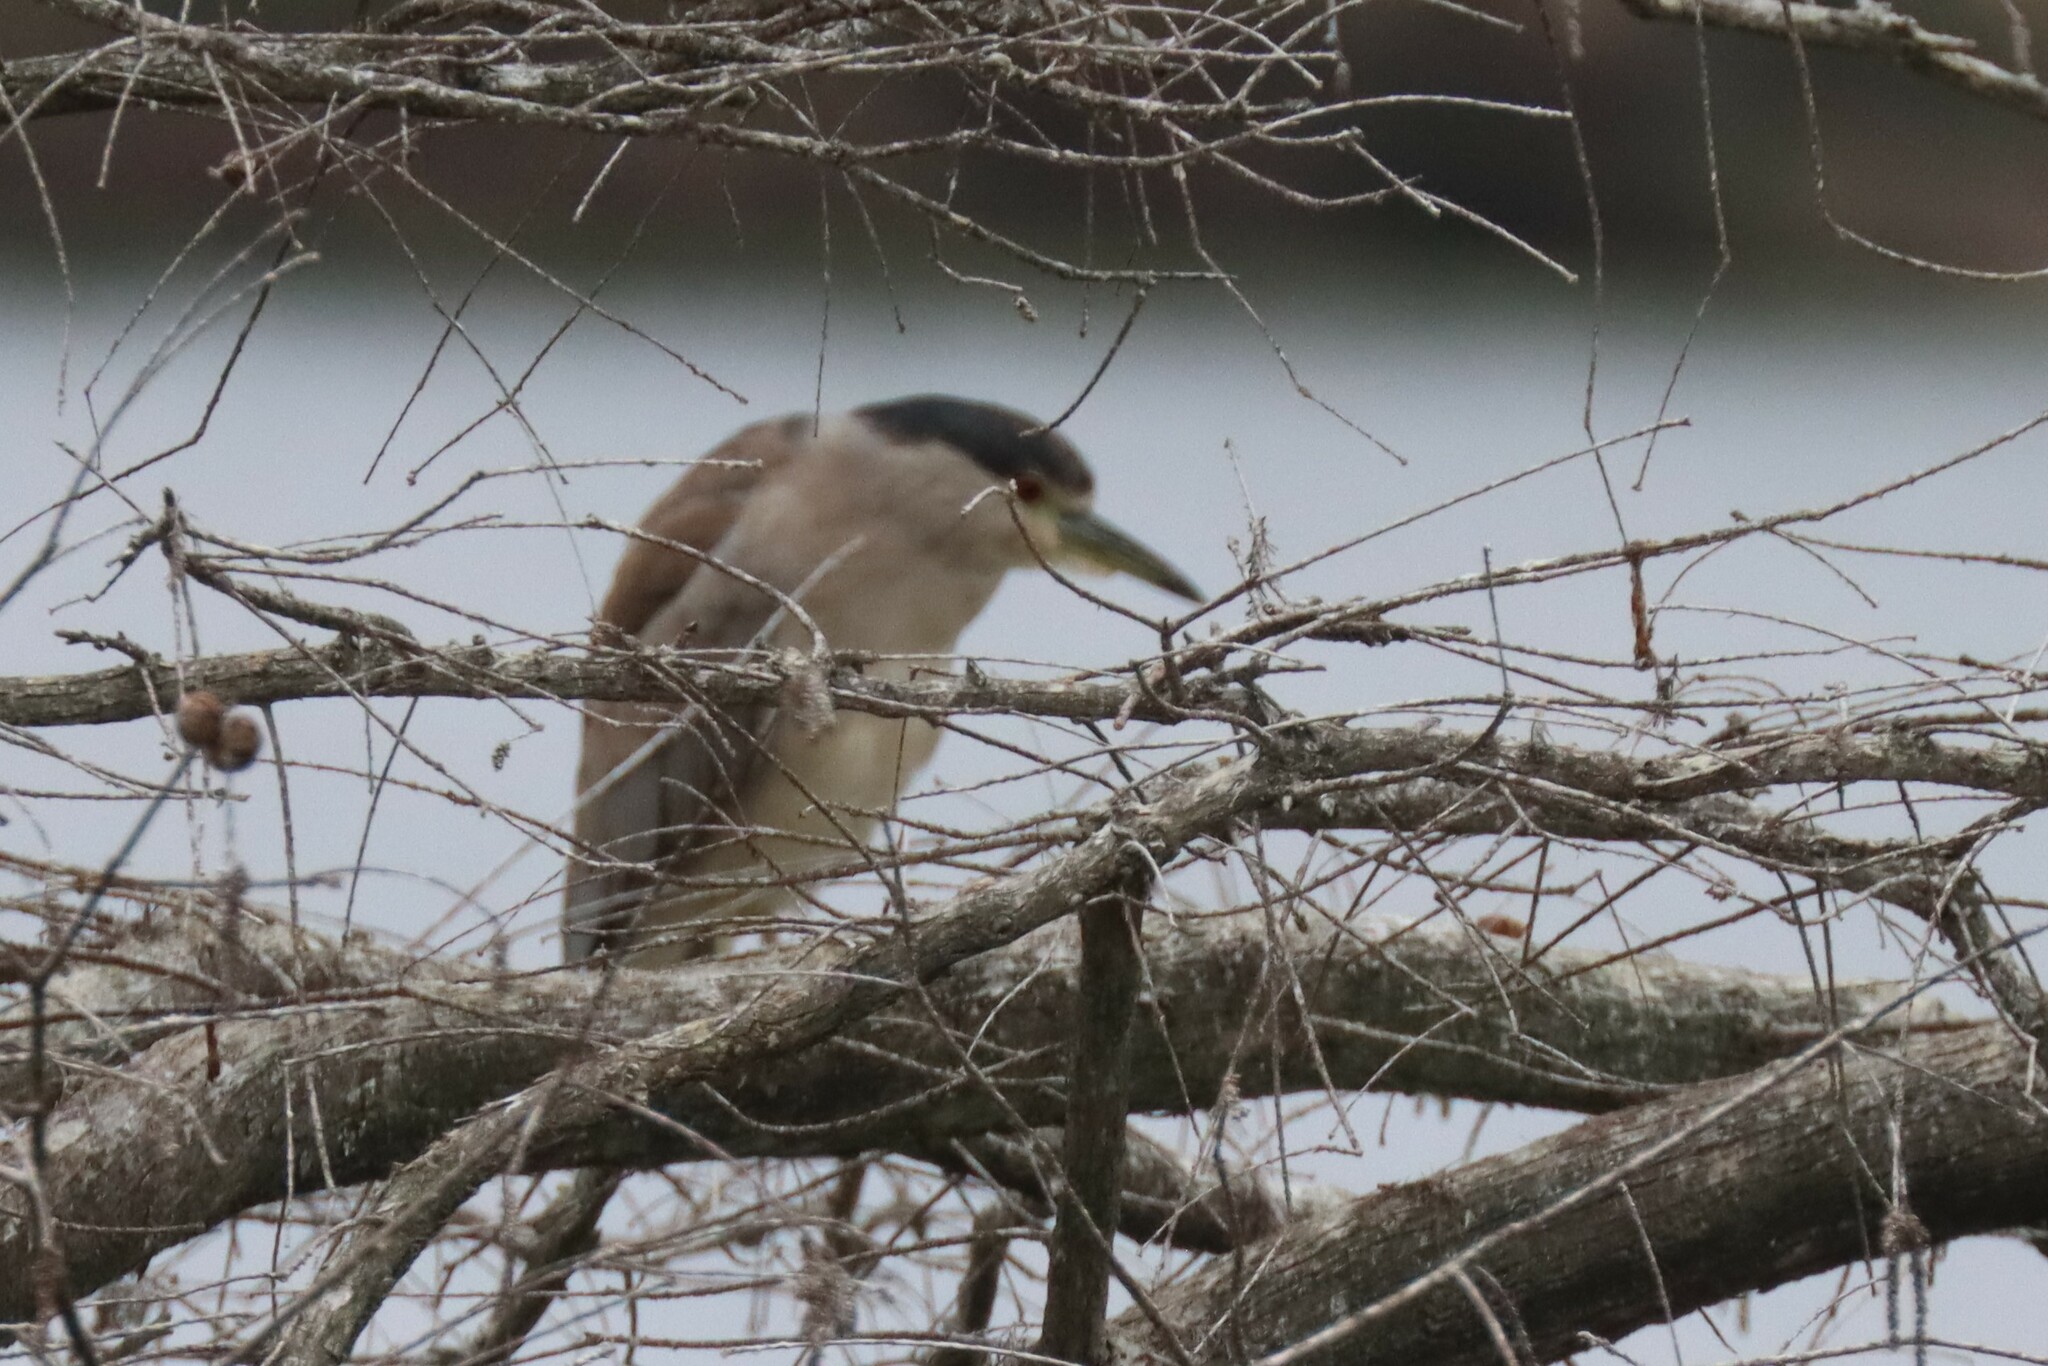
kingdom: Animalia
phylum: Chordata
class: Aves
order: Pelecaniformes
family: Ardeidae
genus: Nycticorax
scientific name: Nycticorax nycticorax
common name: Black-crowned night heron
